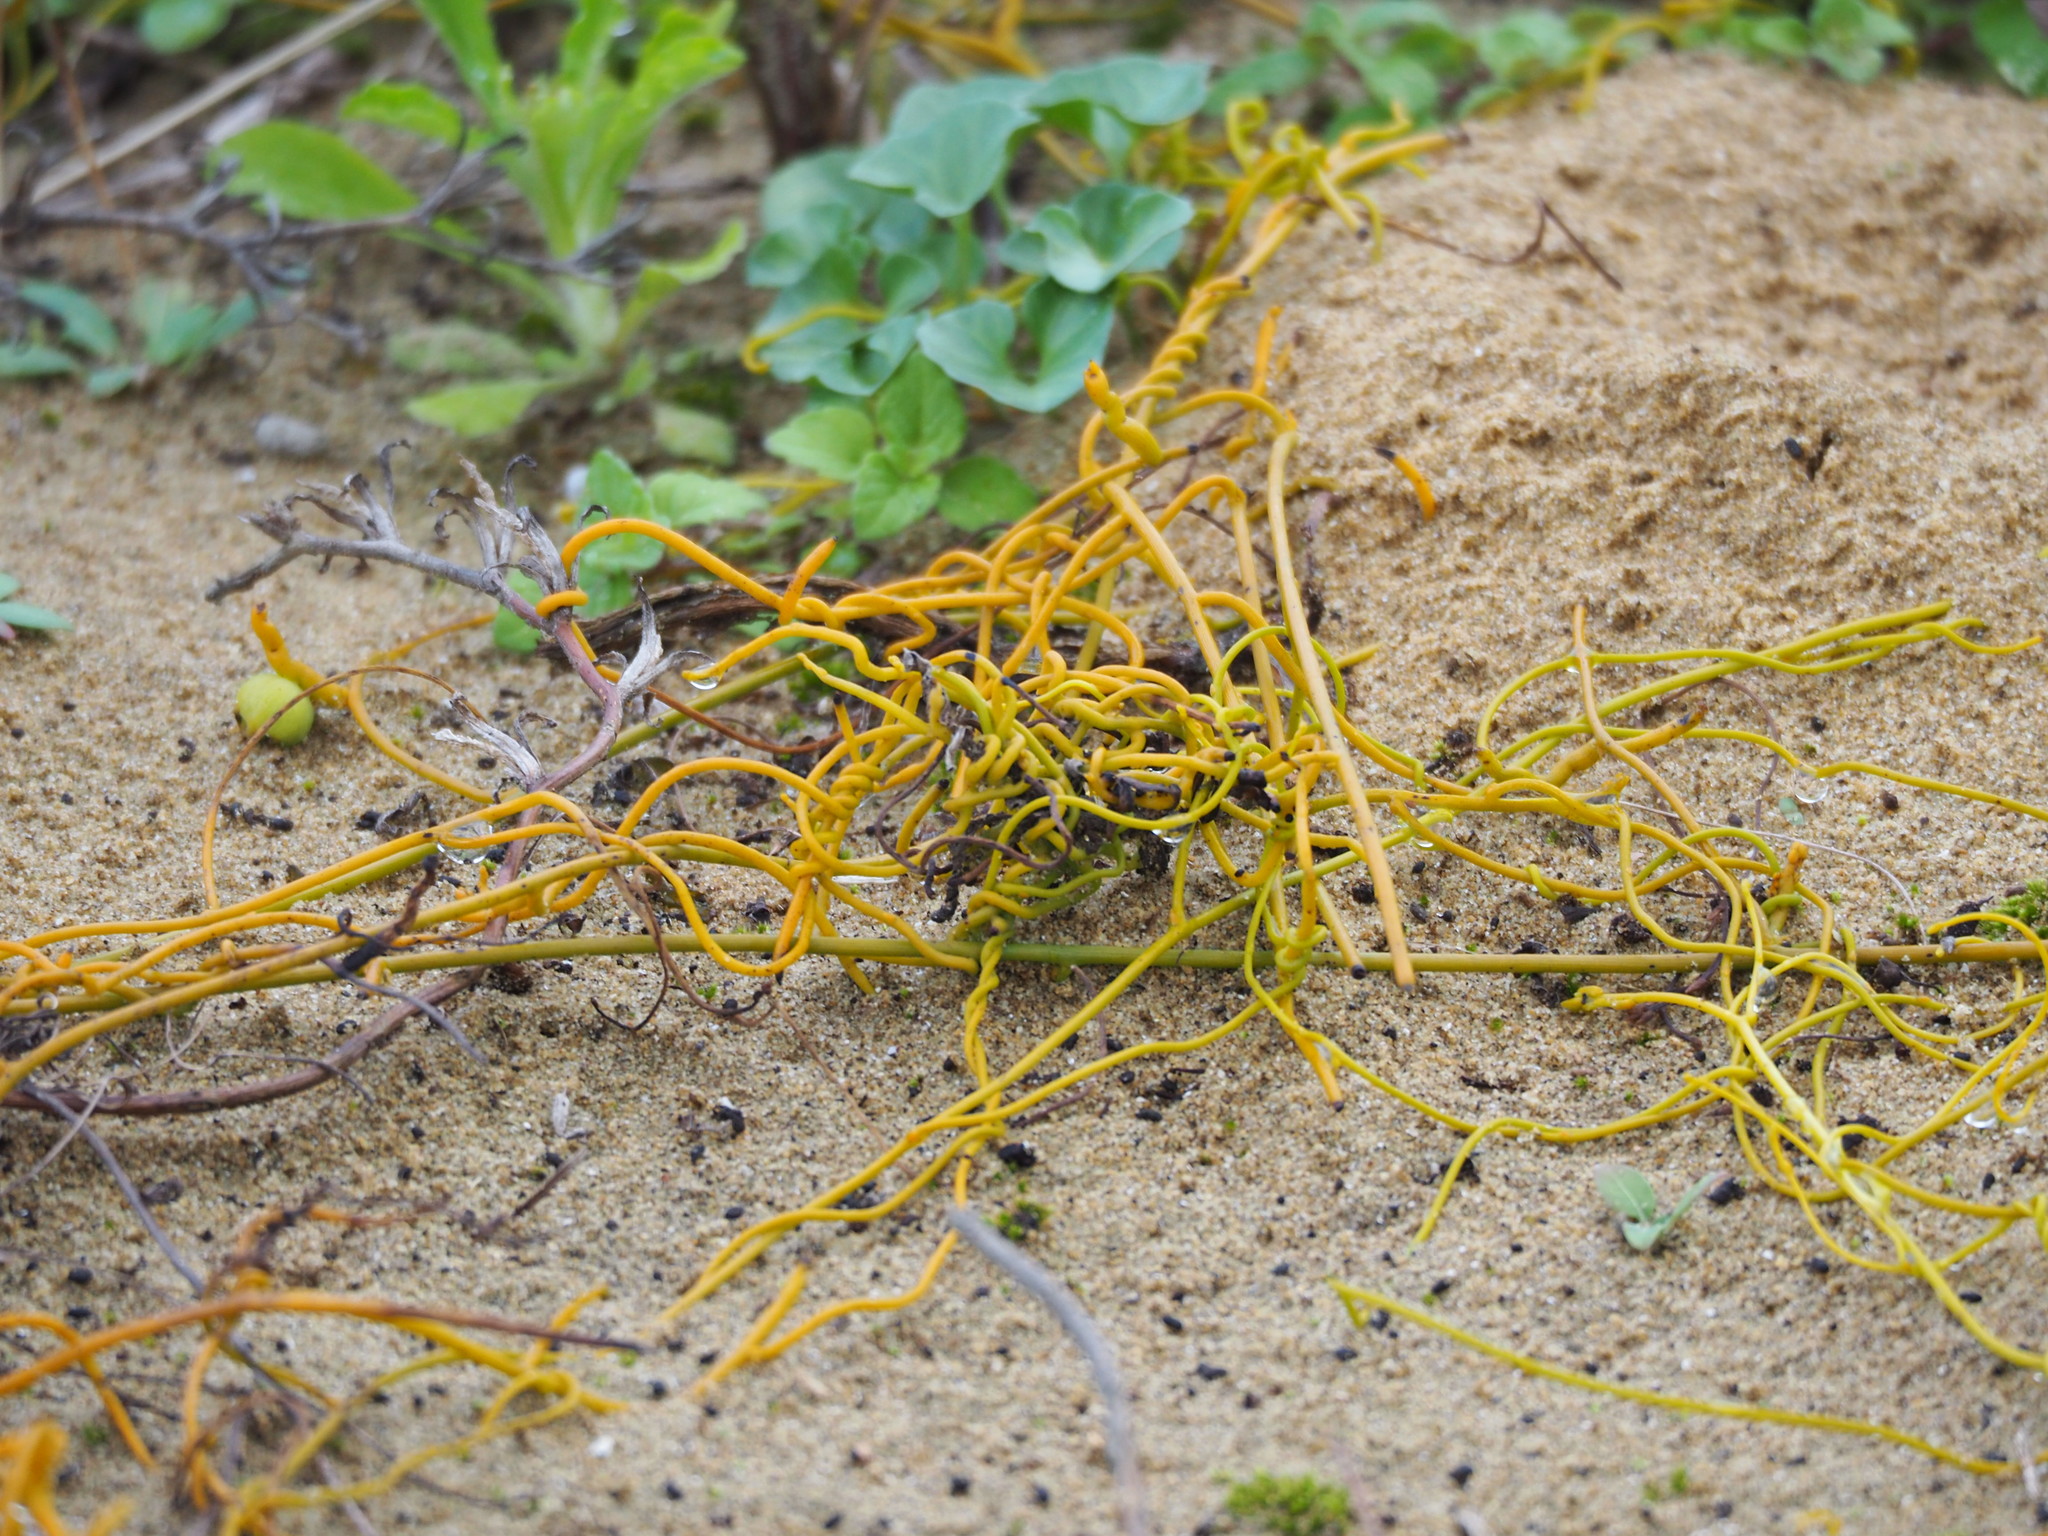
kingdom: Plantae
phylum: Tracheophyta
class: Magnoliopsida
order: Laurales
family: Lauraceae
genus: Cassytha
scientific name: Cassytha filiformis
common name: Dodder-laurel
